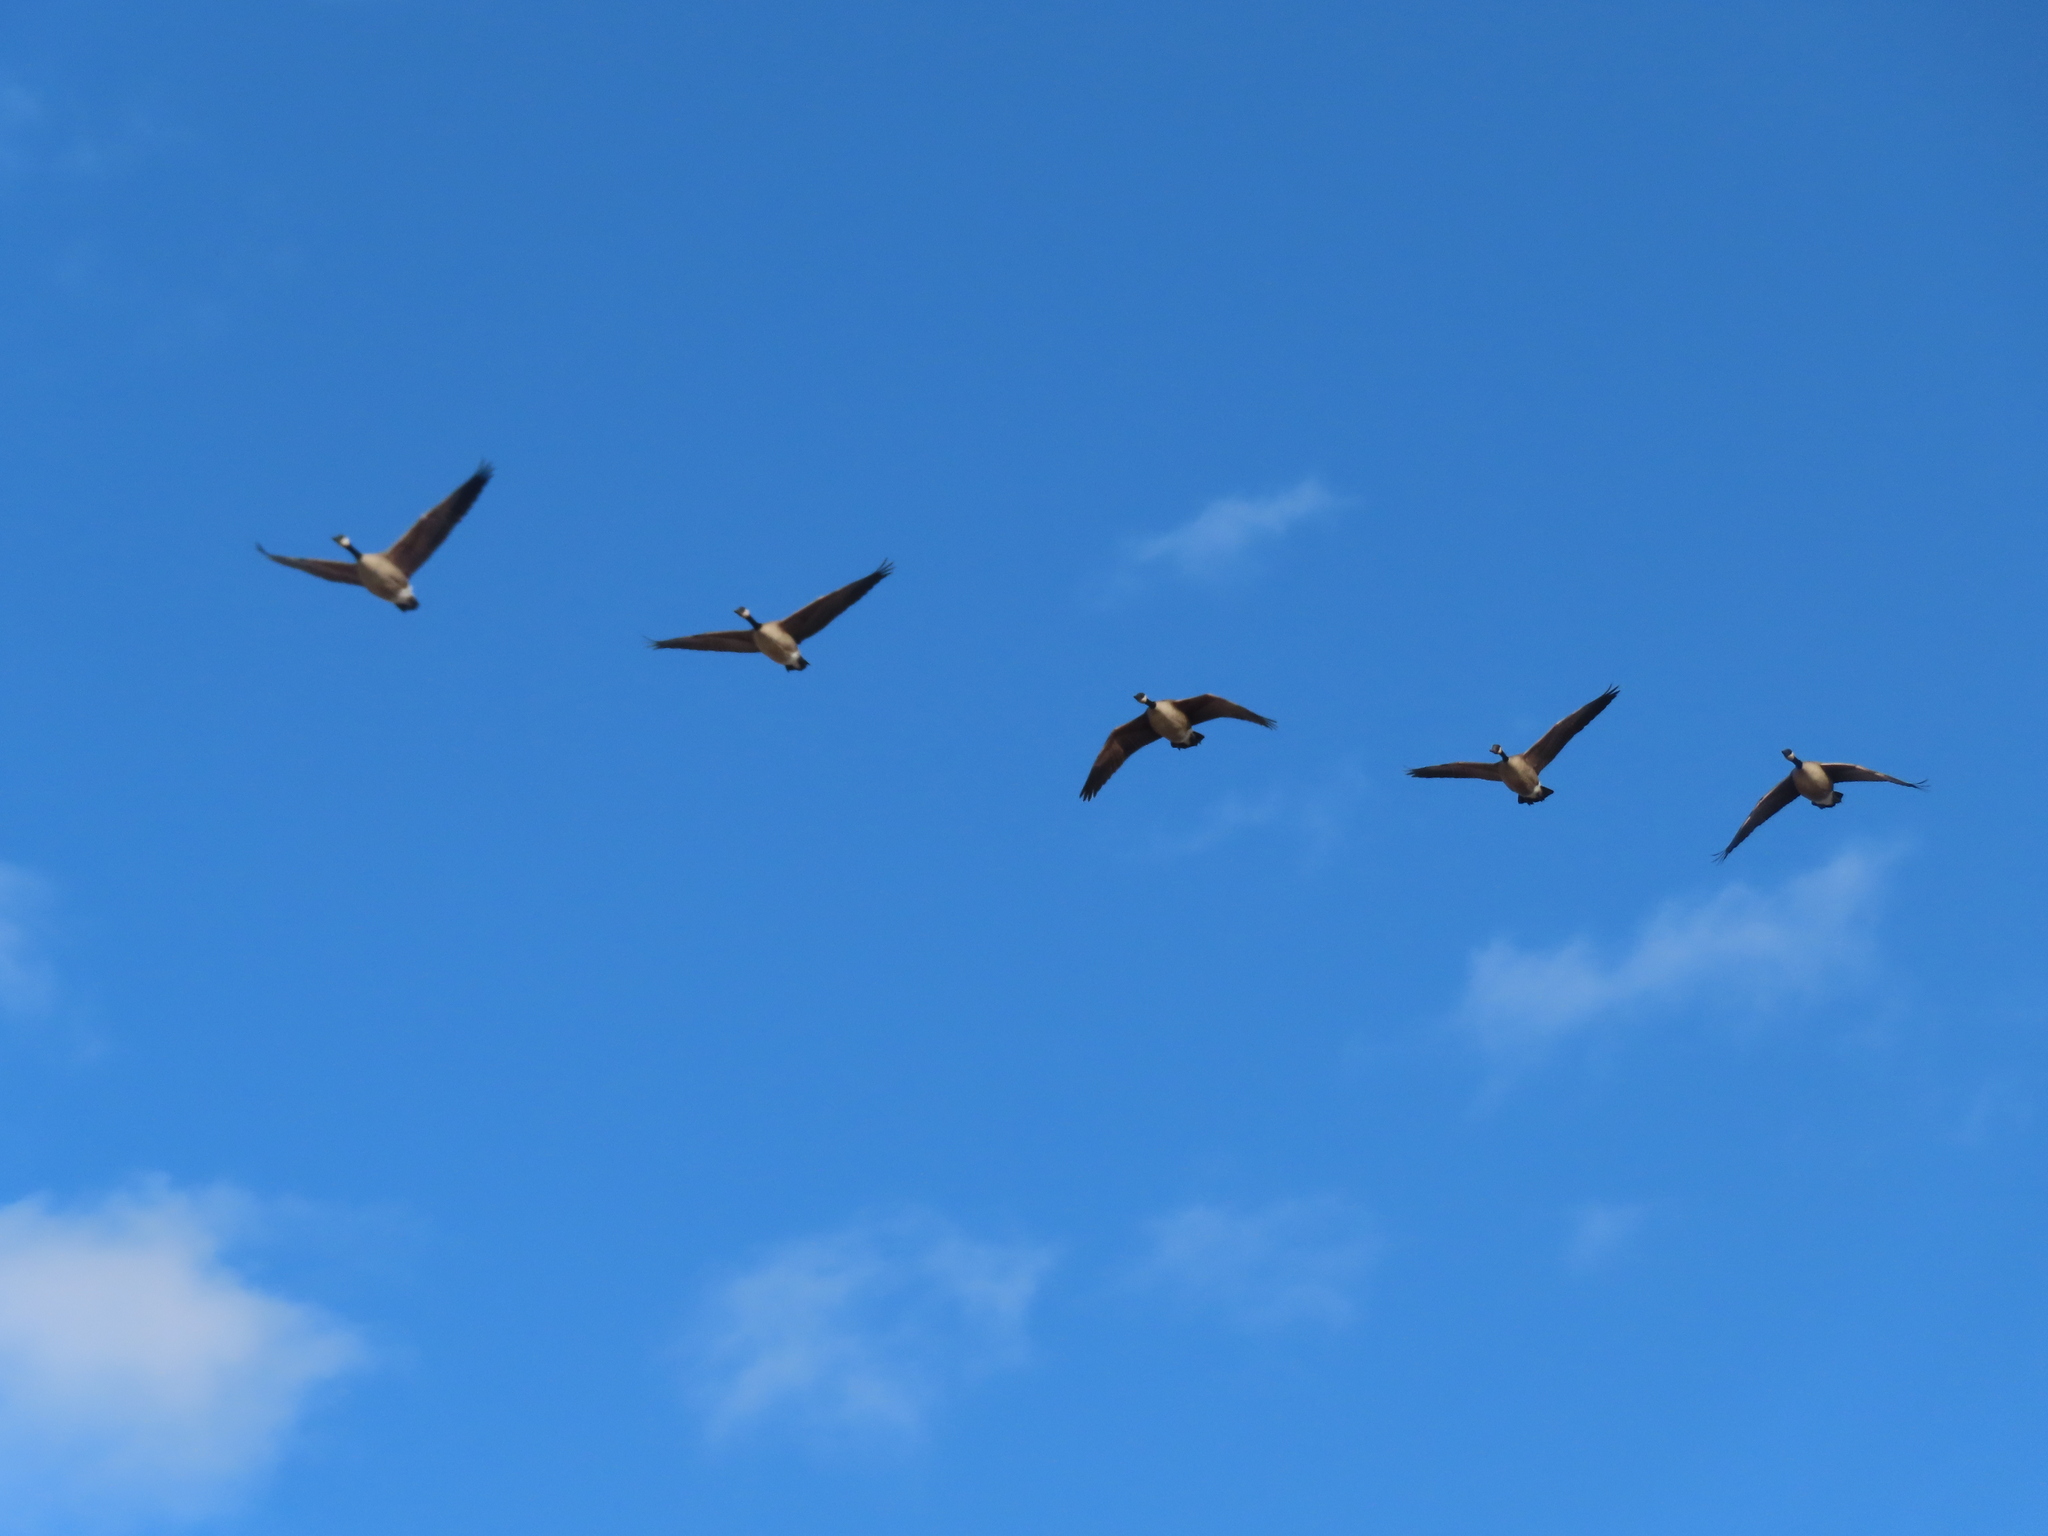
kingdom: Animalia
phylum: Chordata
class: Aves
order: Anseriformes
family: Anatidae
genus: Branta
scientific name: Branta canadensis
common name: Canada goose
